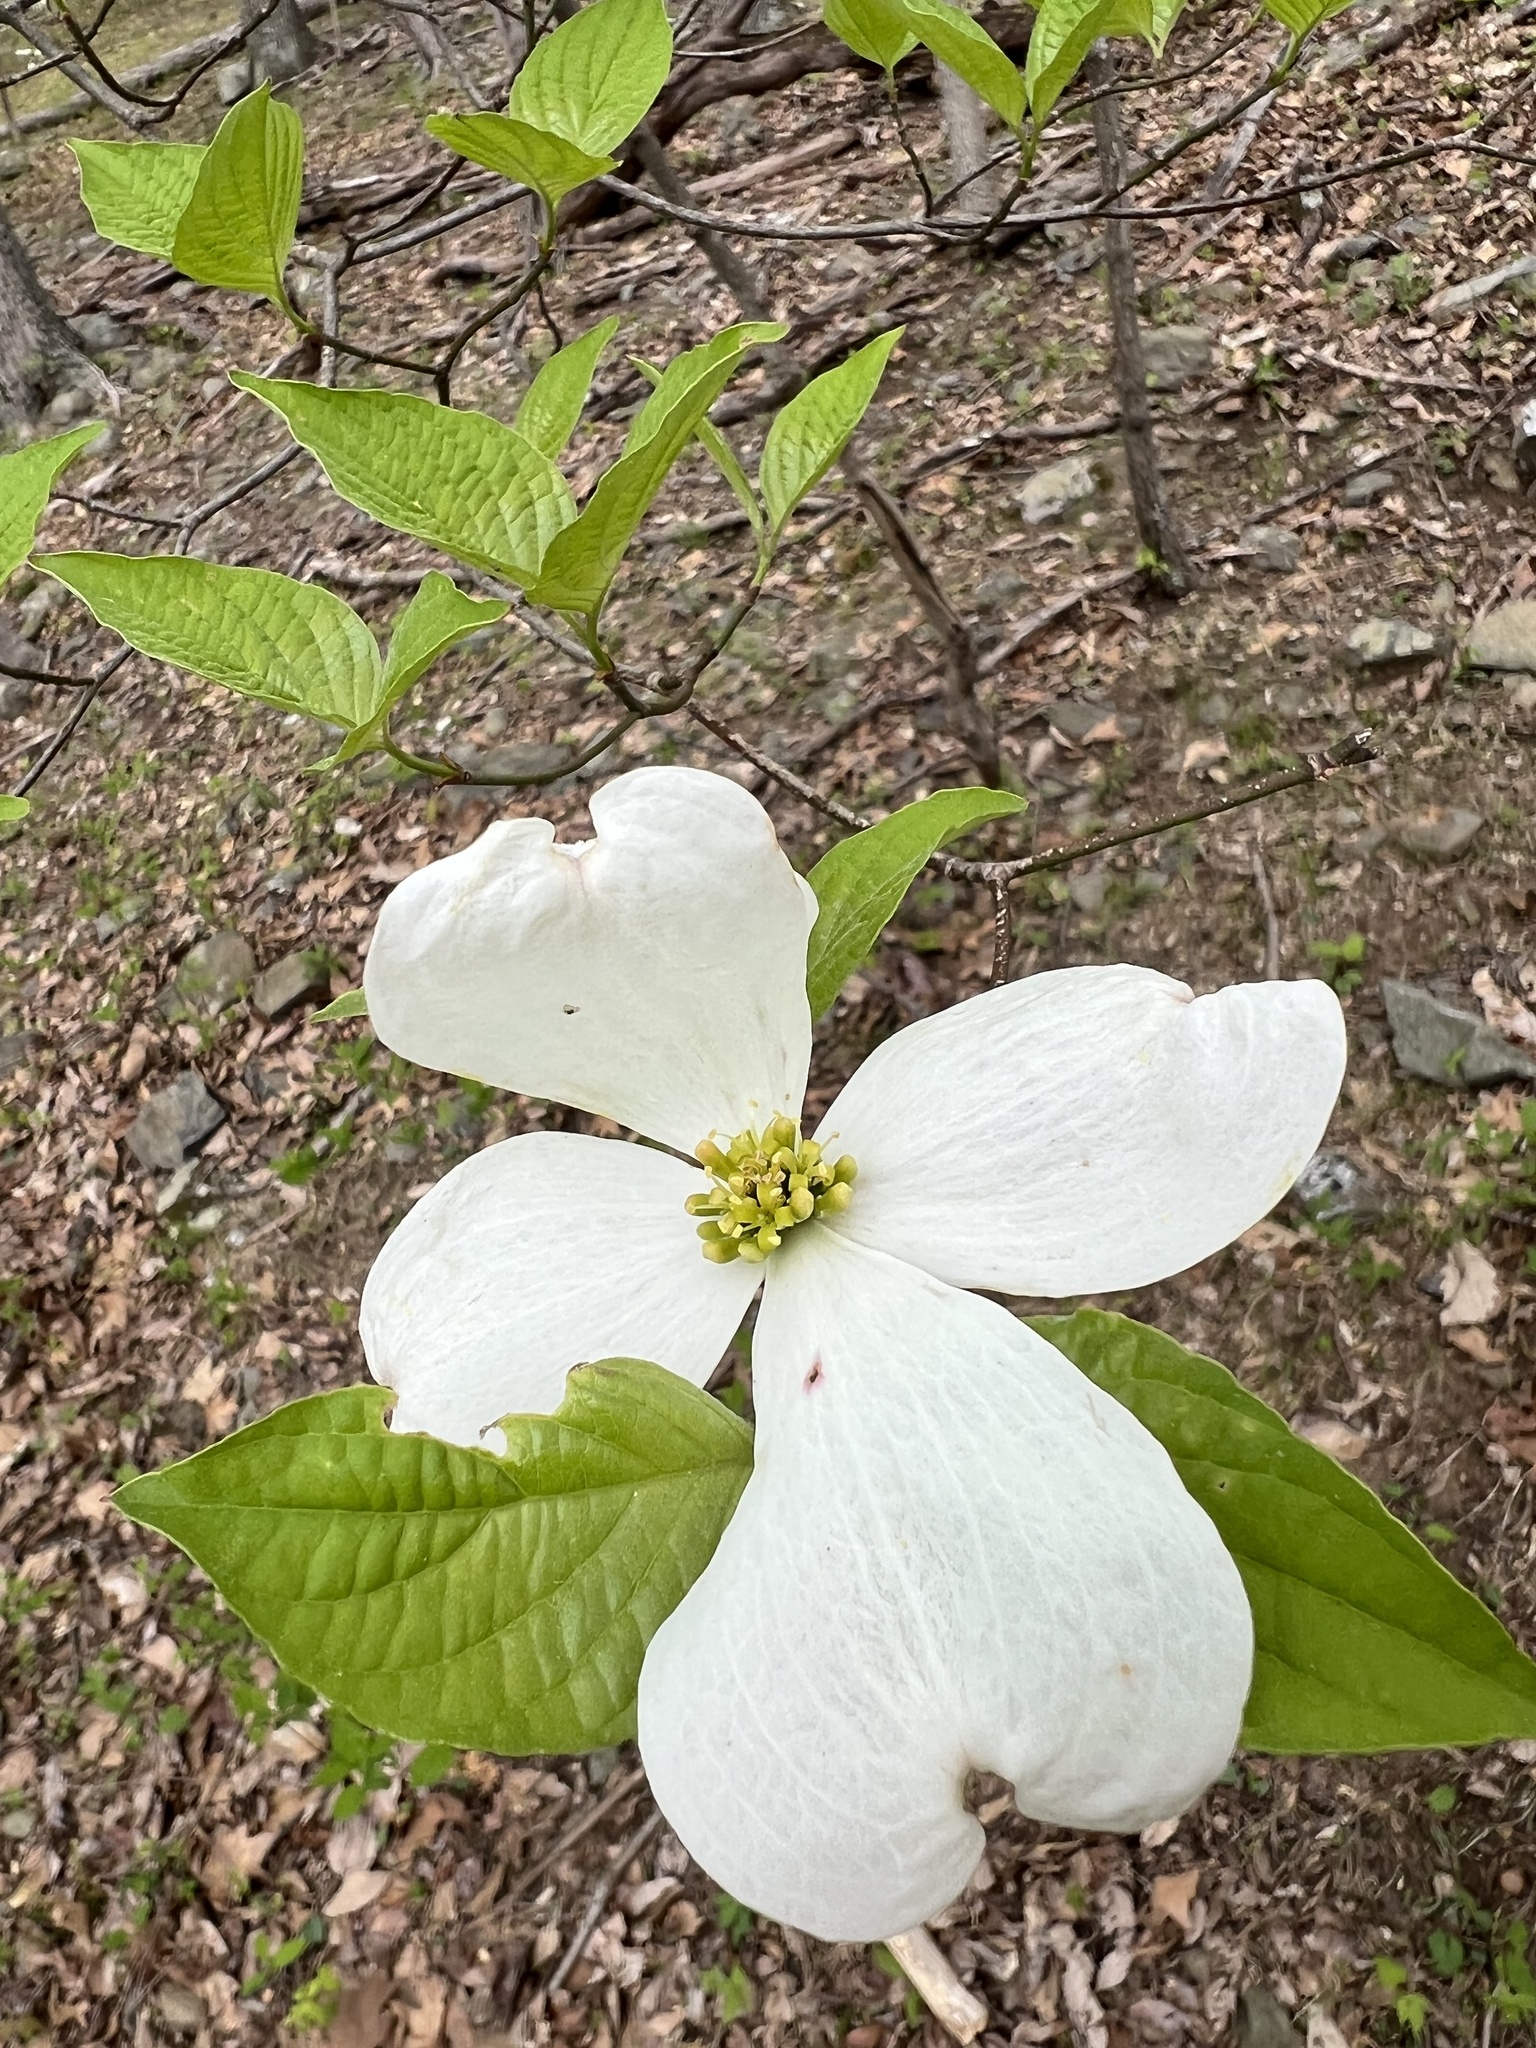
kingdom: Plantae
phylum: Tracheophyta
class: Magnoliopsida
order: Cornales
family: Cornaceae
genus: Cornus
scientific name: Cornus florida
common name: Flowering dogwood
